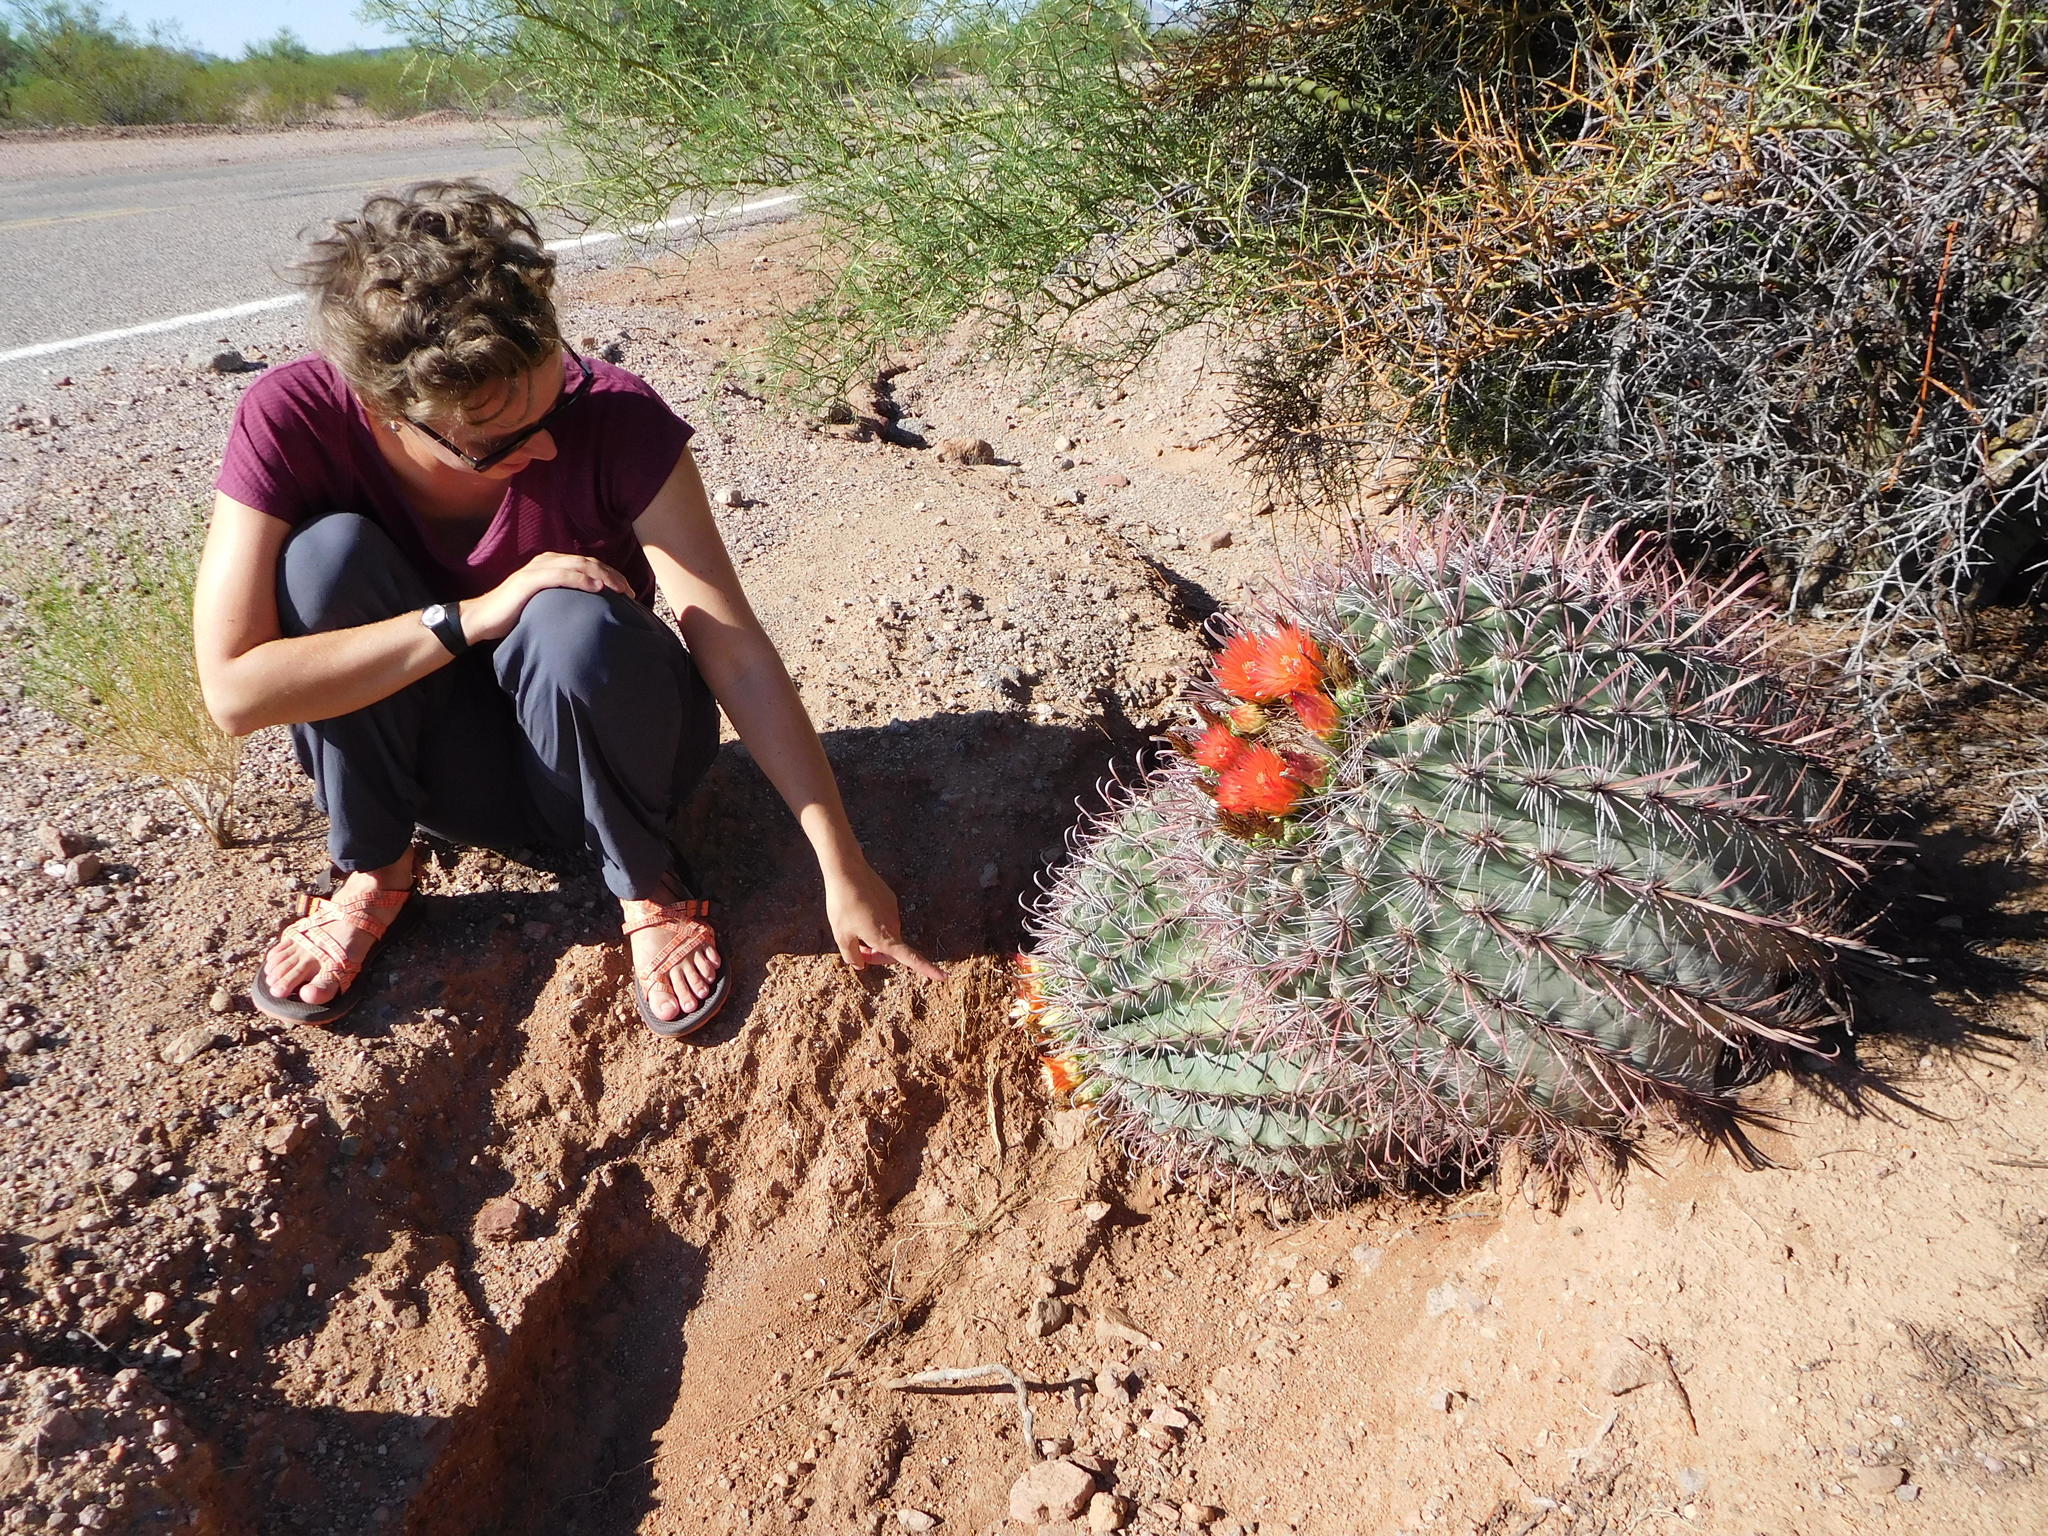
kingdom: Plantae
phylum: Tracheophyta
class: Magnoliopsida
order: Caryophyllales
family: Cactaceae
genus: Ferocactus
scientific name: Ferocactus wislizeni
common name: Candy barrel cactus
